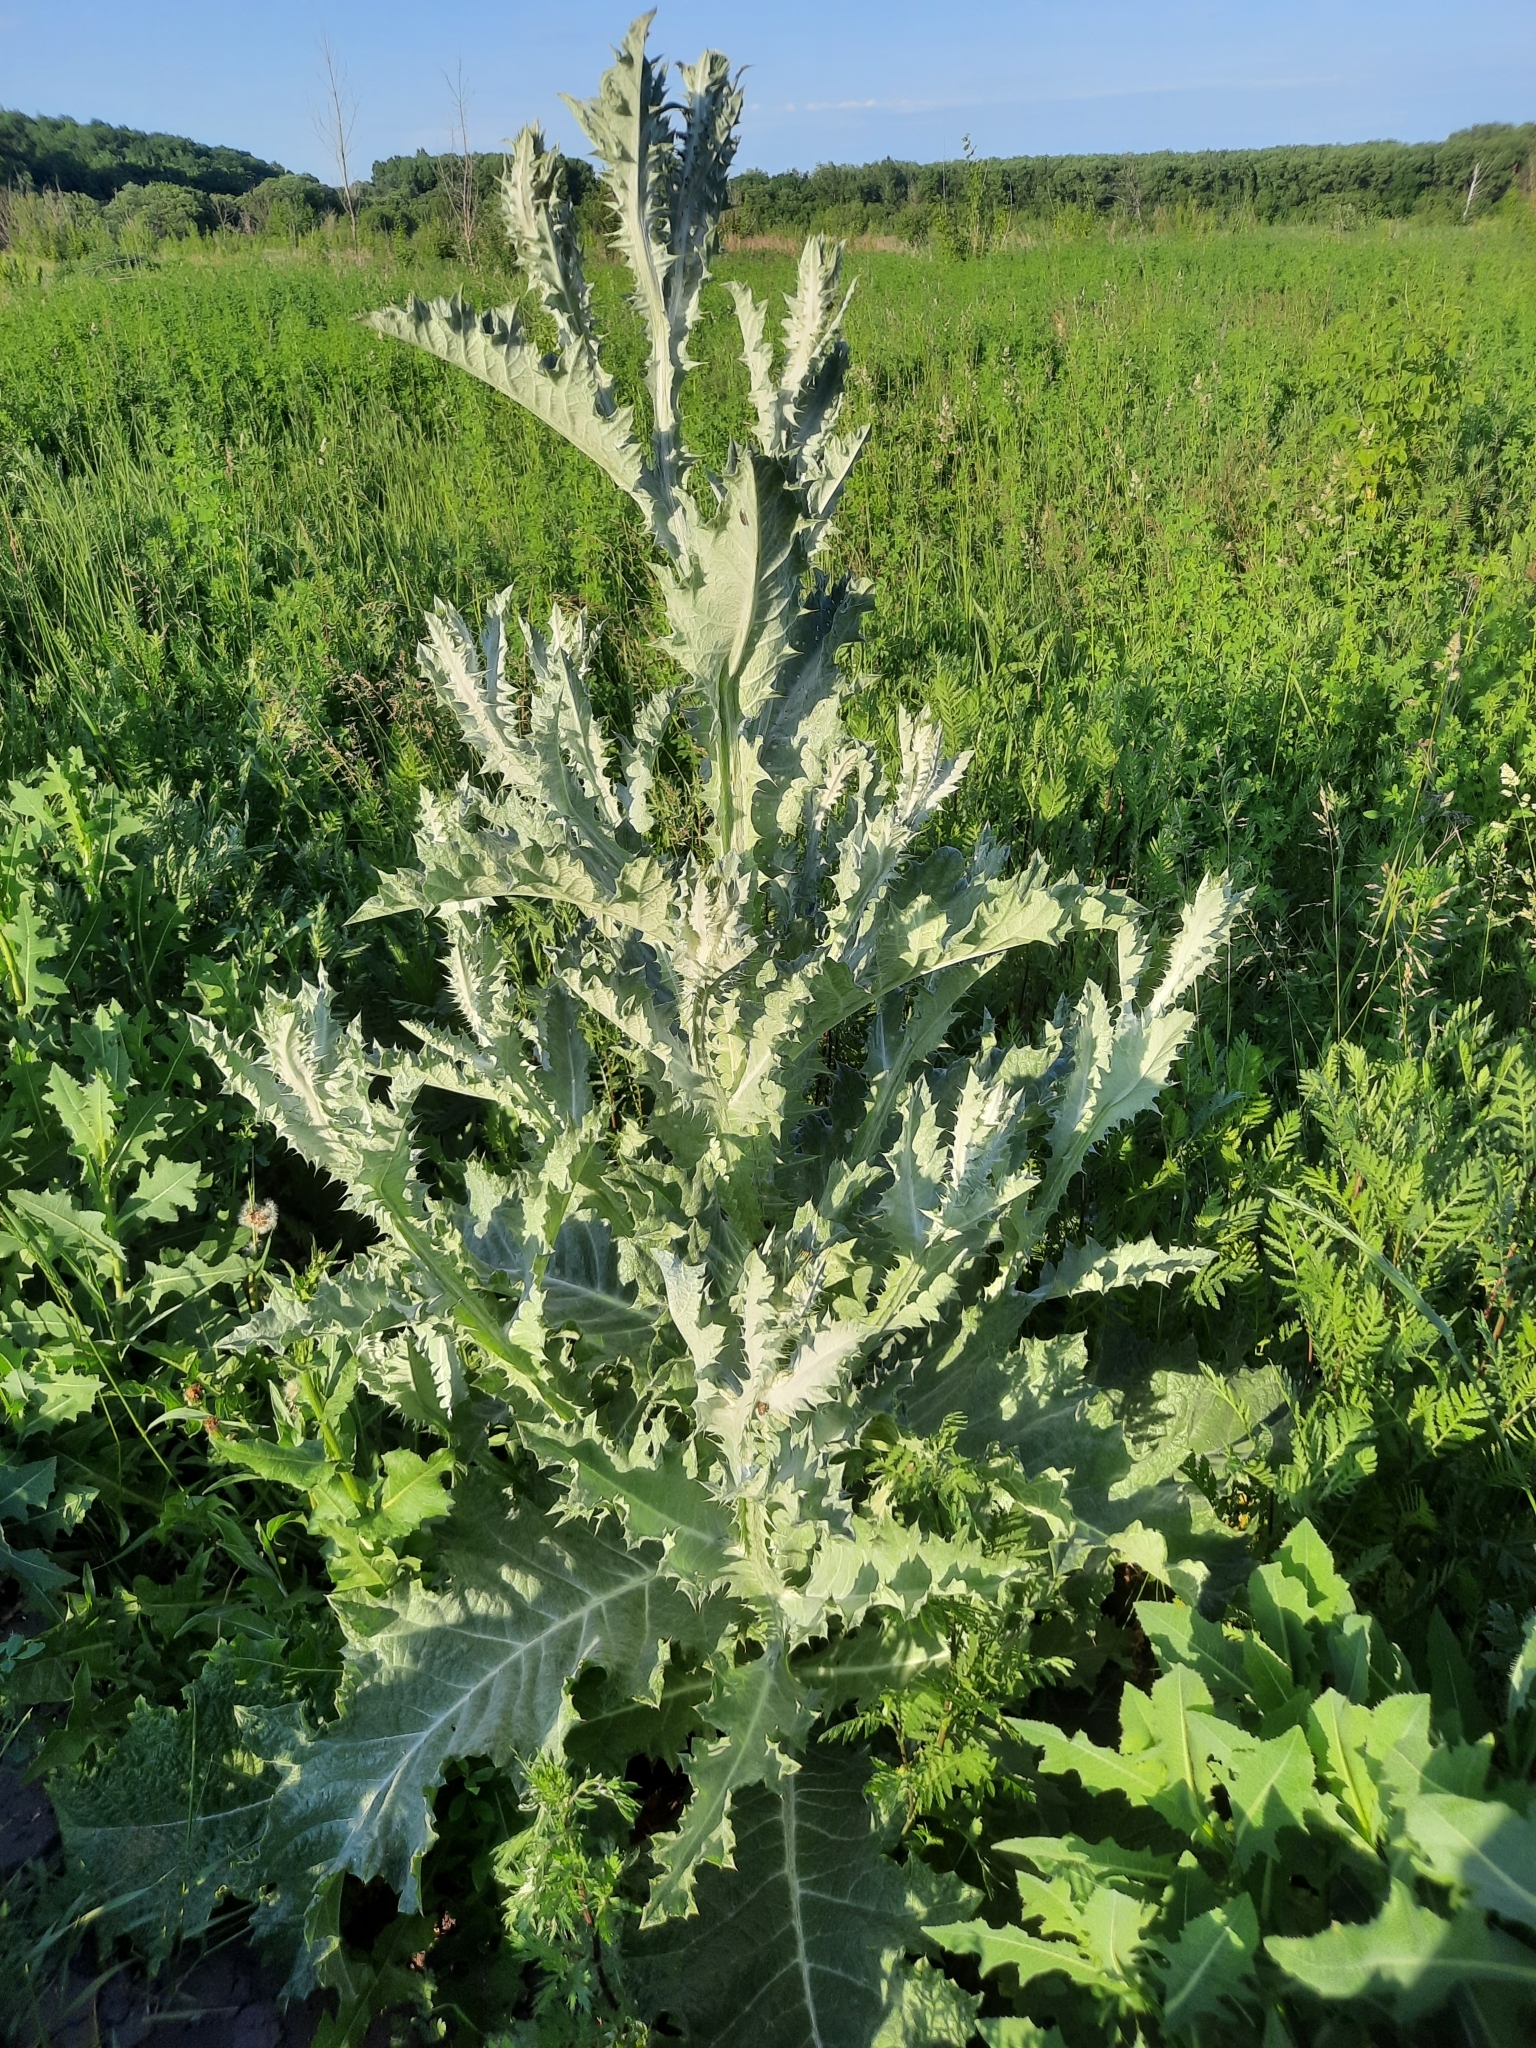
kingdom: Plantae
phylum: Tracheophyta
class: Magnoliopsida
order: Asterales
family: Asteraceae
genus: Onopordum
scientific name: Onopordum acanthium
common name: Scotch thistle
